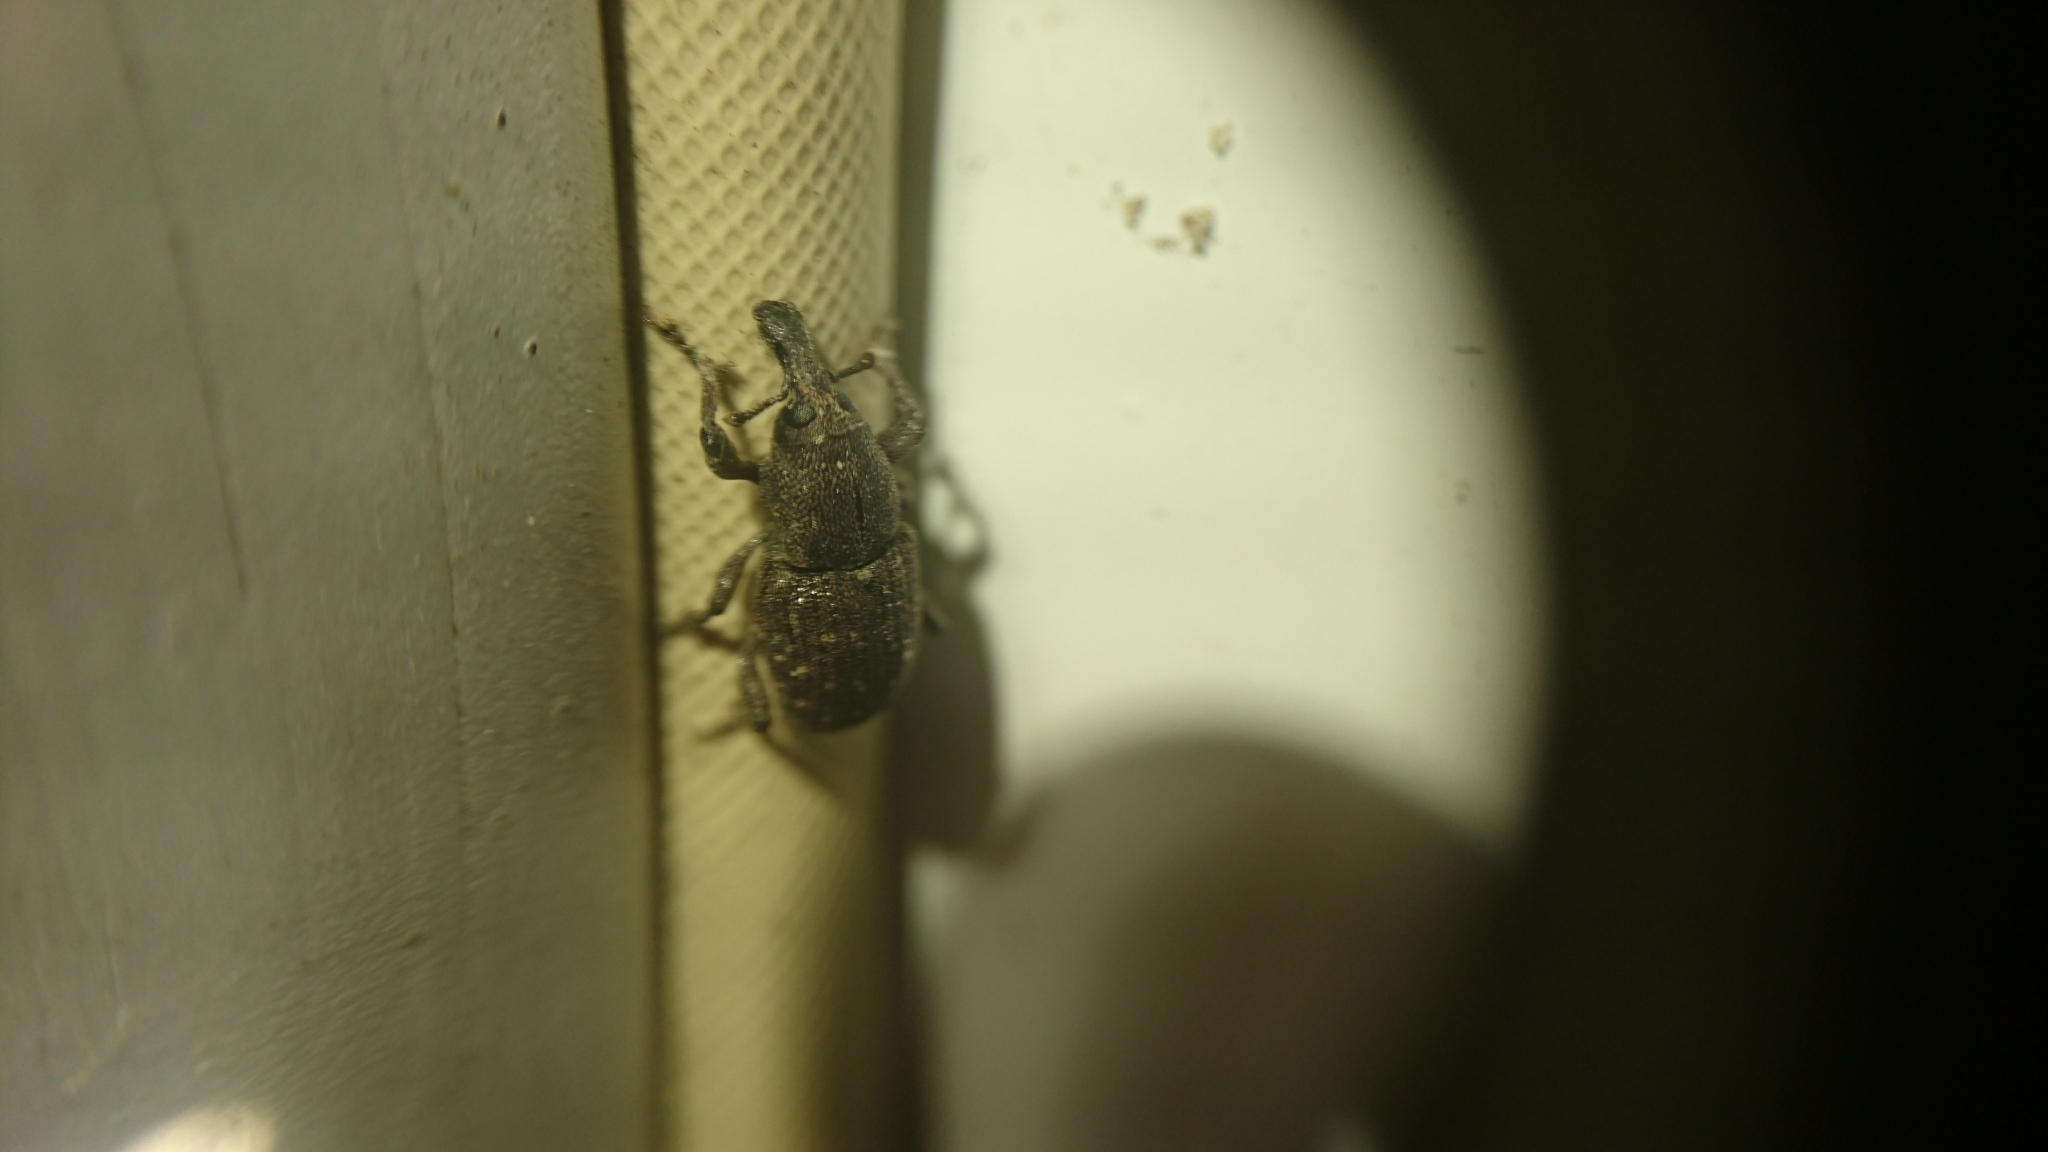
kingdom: Animalia
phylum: Arthropoda
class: Insecta
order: Coleoptera
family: Curculionidae
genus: Pachylobius
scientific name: Pachylobius picivorus
